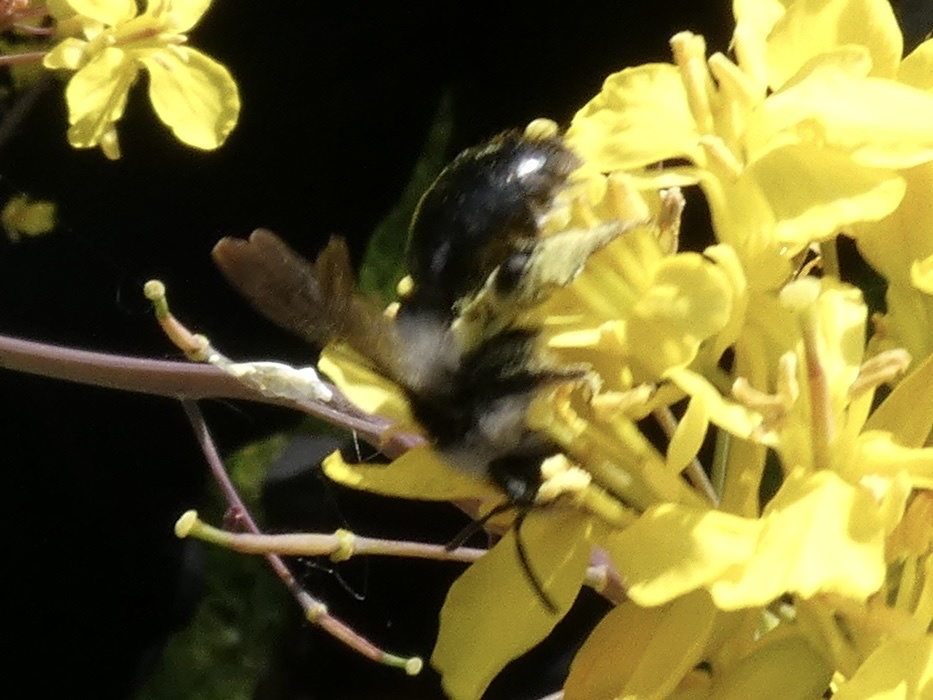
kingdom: Animalia
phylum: Arthropoda
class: Insecta
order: Hymenoptera
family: Andrenidae
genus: Andrena
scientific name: Andrena cineraria
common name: Ashy mining bee
